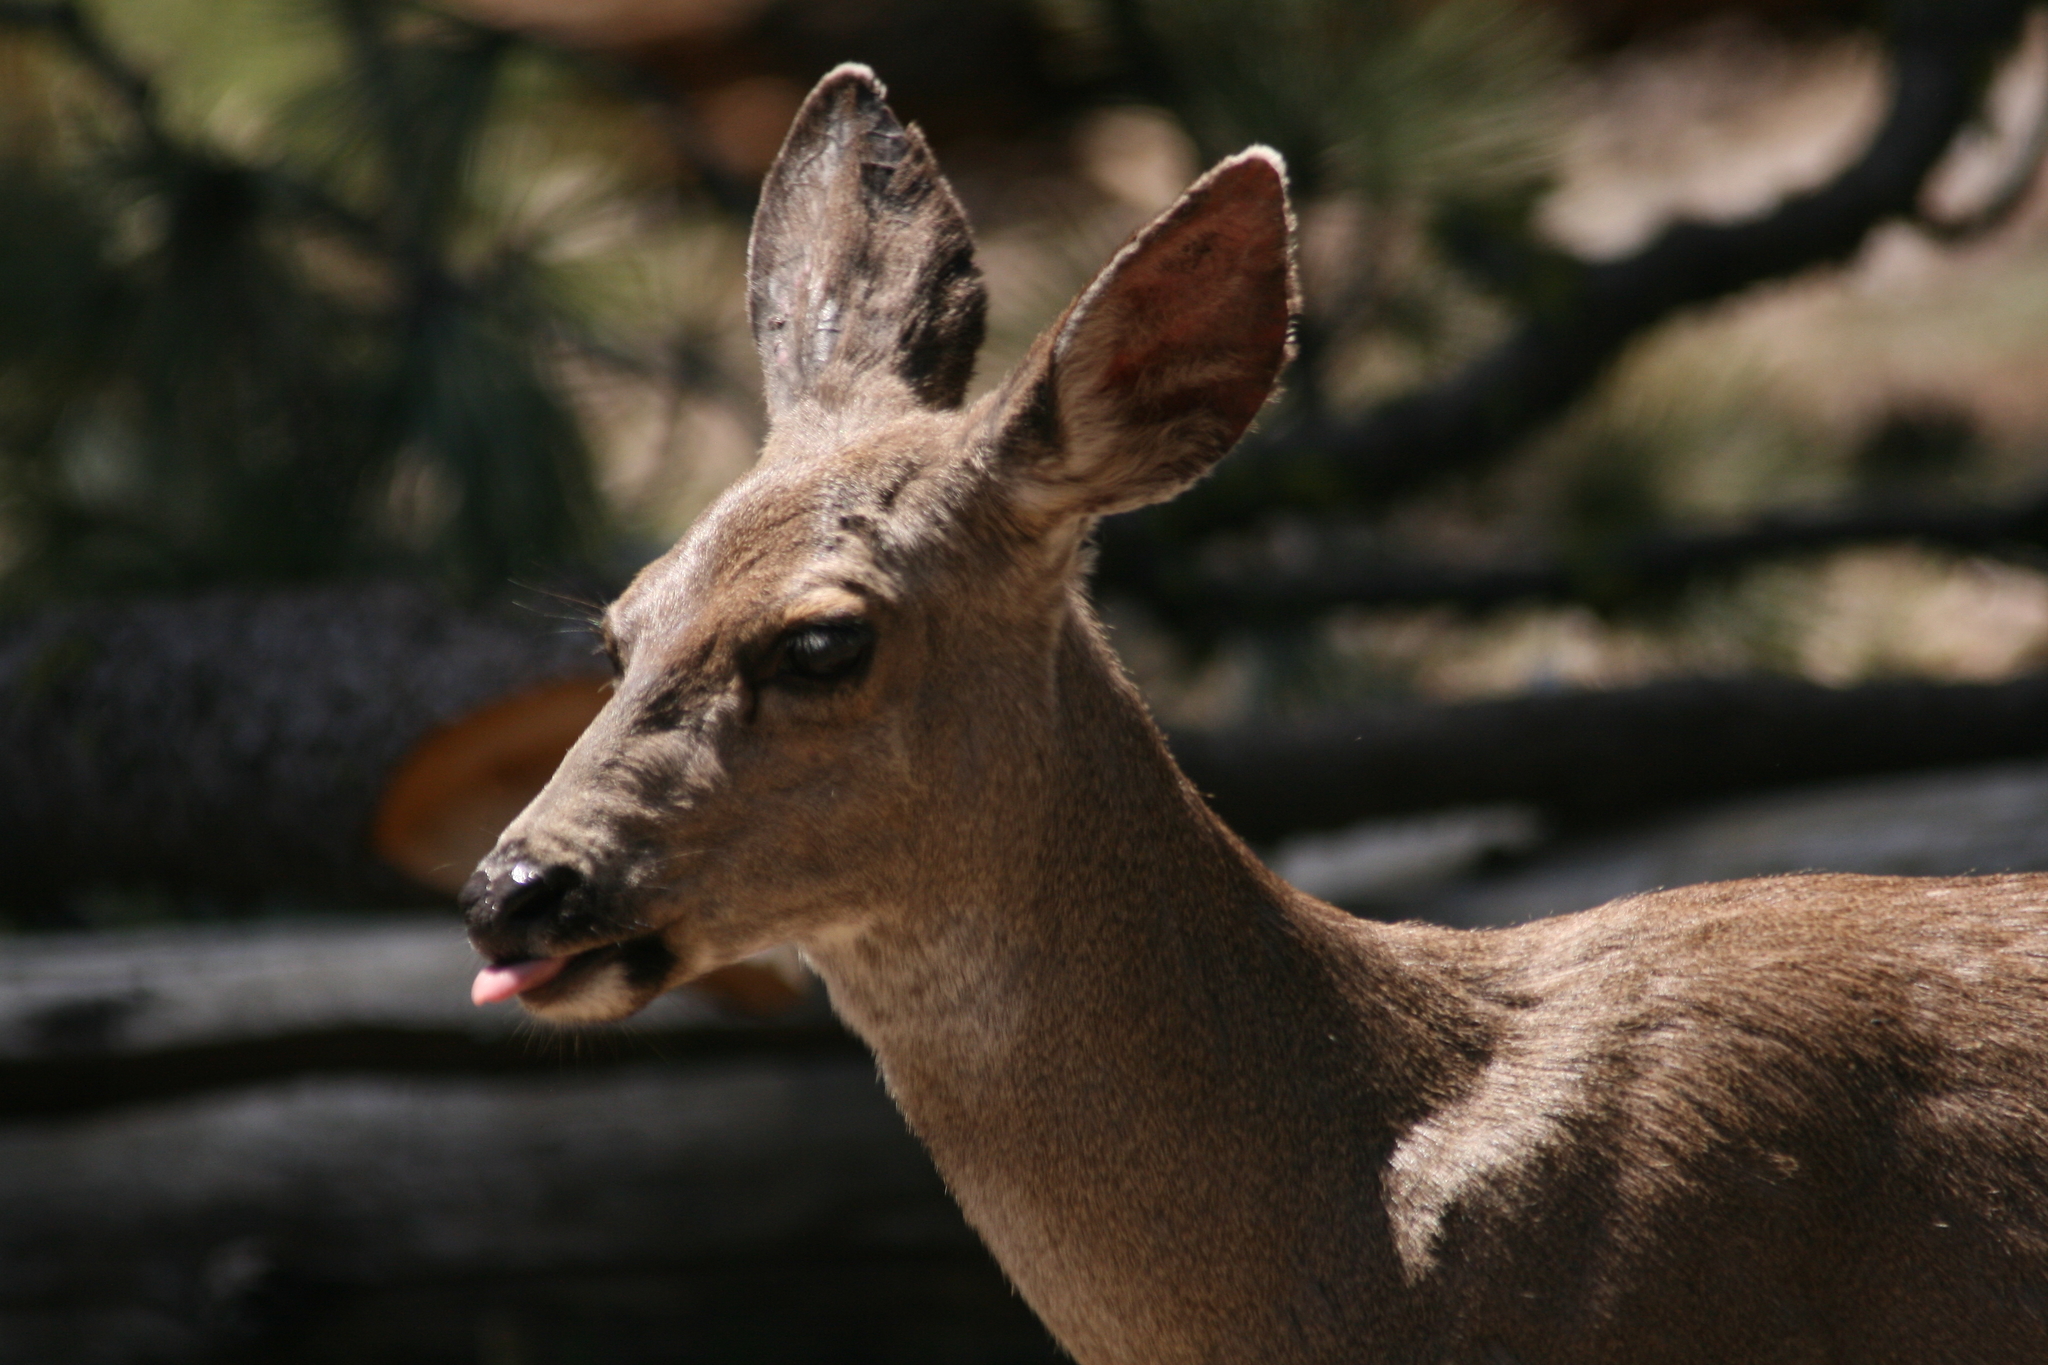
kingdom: Animalia
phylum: Chordata
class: Mammalia
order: Artiodactyla
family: Cervidae
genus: Odocoileus
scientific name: Odocoileus hemionus
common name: Mule deer
